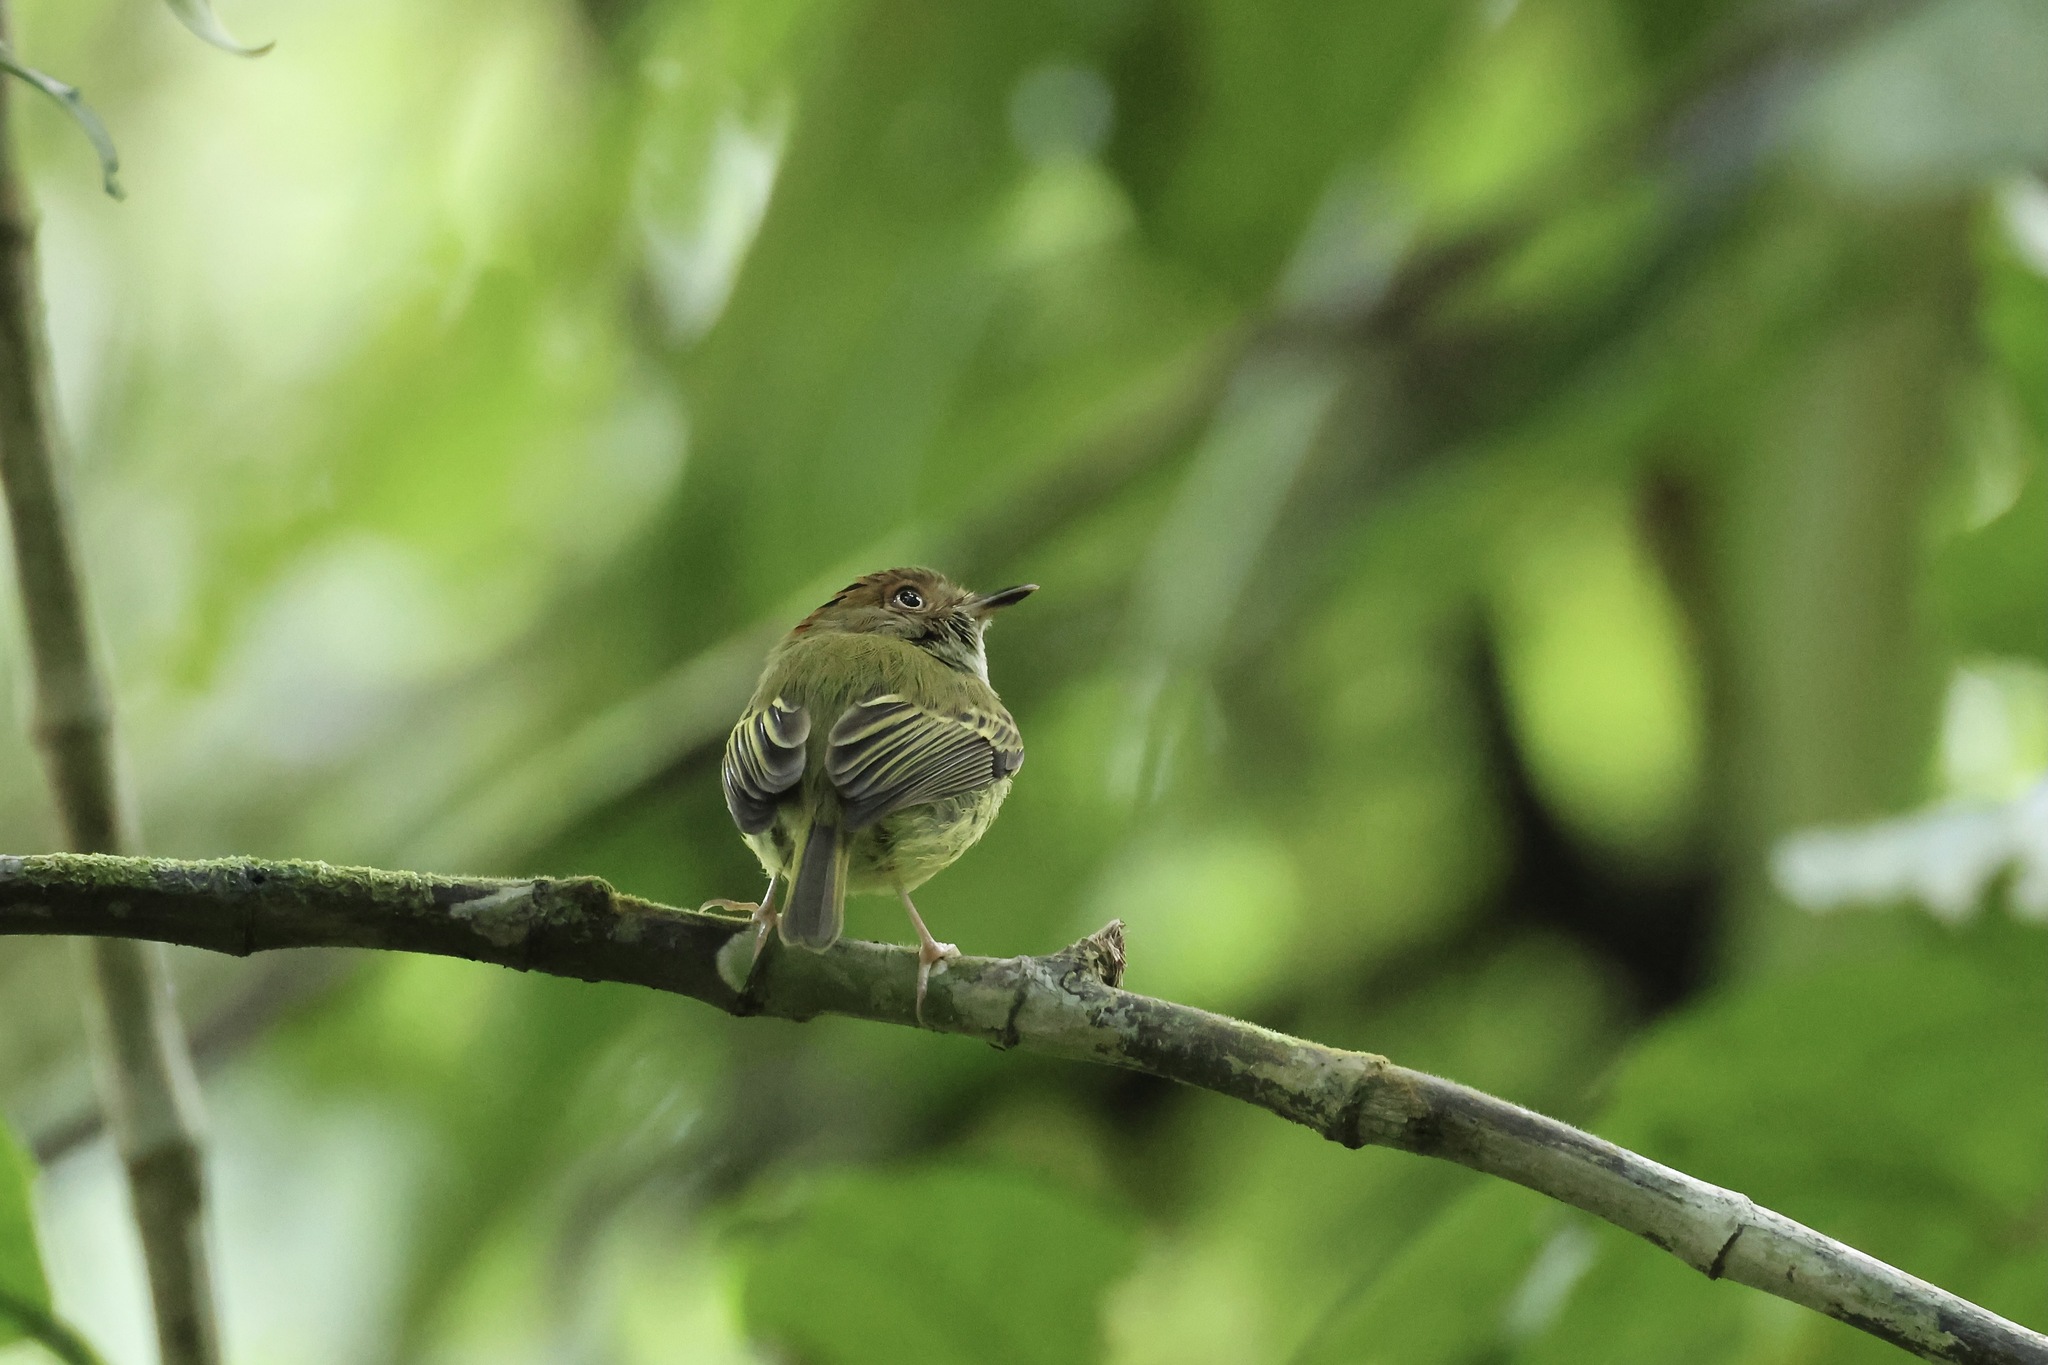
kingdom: Animalia
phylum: Chordata
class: Aves
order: Passeriformes
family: Tyrannidae
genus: Lophotriccus
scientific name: Lophotriccus pileatus
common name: Scale-crested pygmy-tyrant
